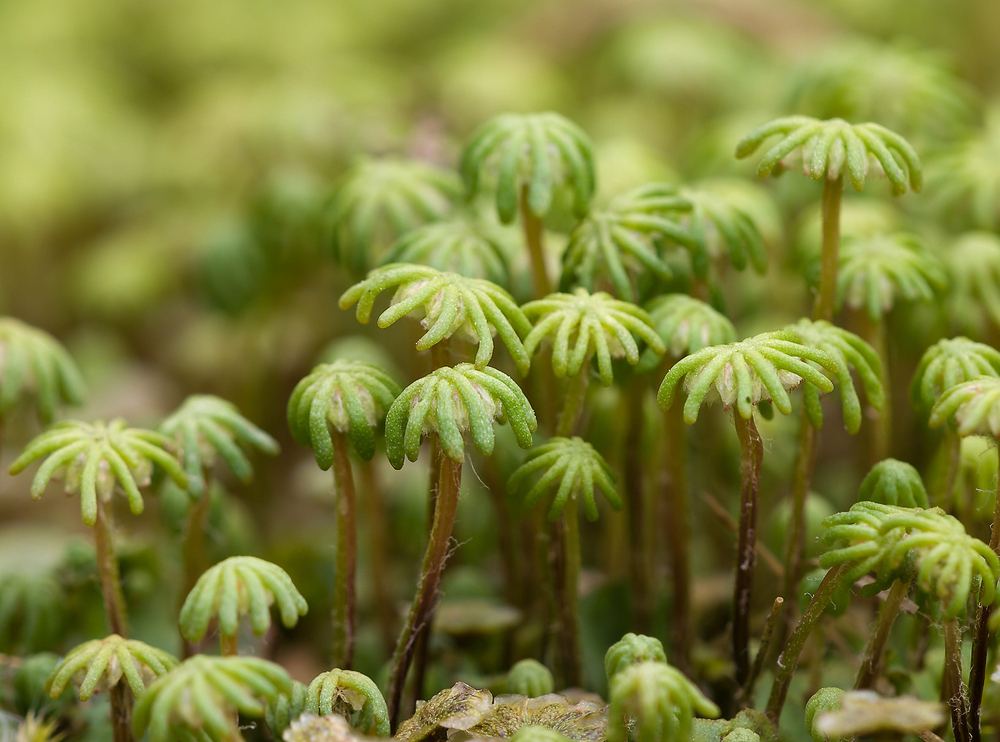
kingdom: Plantae
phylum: Marchantiophyta
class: Marchantiopsida
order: Marchantiales
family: Marchantiaceae
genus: Marchantia
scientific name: Marchantia polymorpha
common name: Common liverwort
